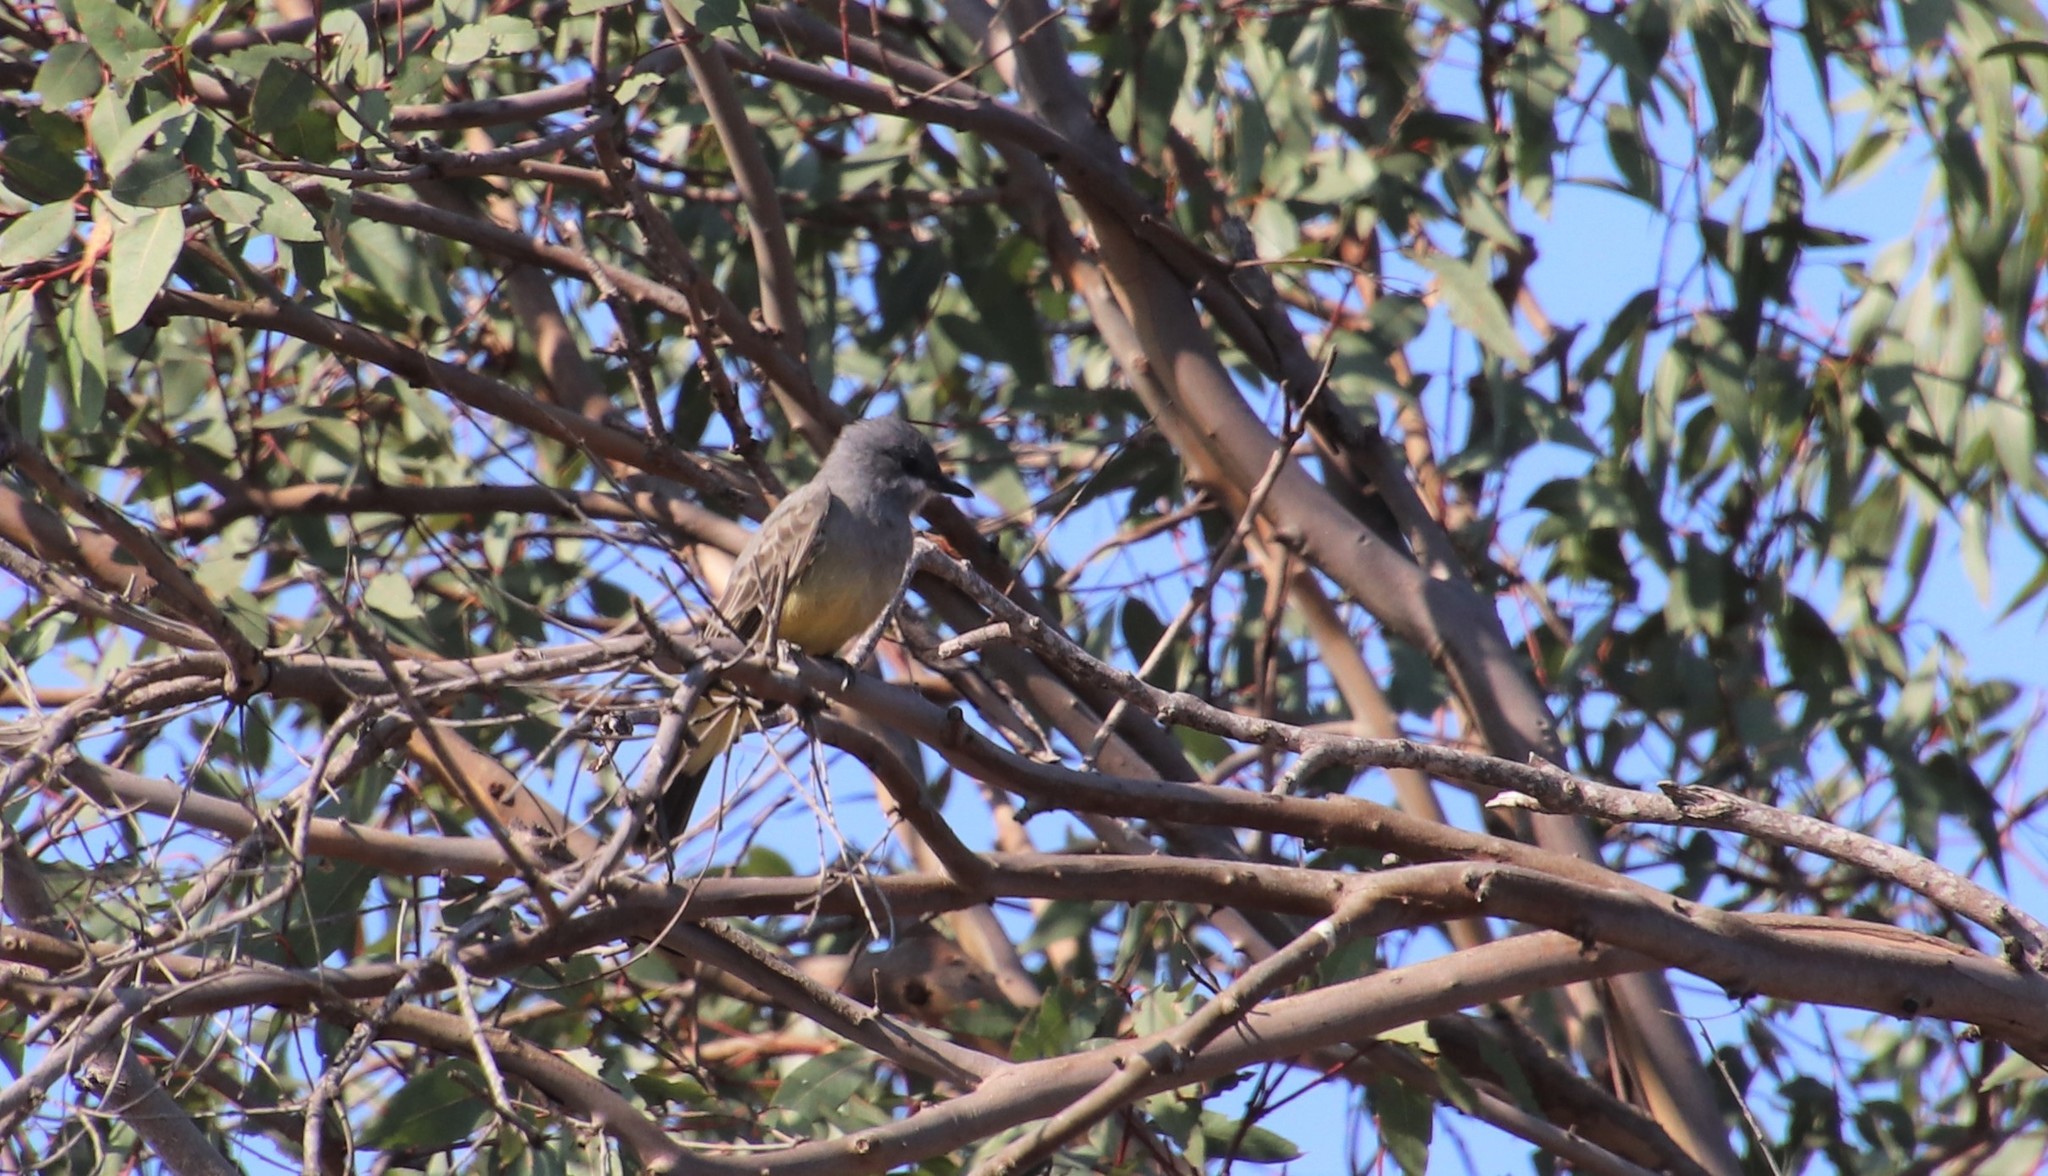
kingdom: Animalia
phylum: Chordata
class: Aves
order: Passeriformes
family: Tyrannidae
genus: Tyrannus
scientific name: Tyrannus vociferans
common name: Cassin's kingbird
